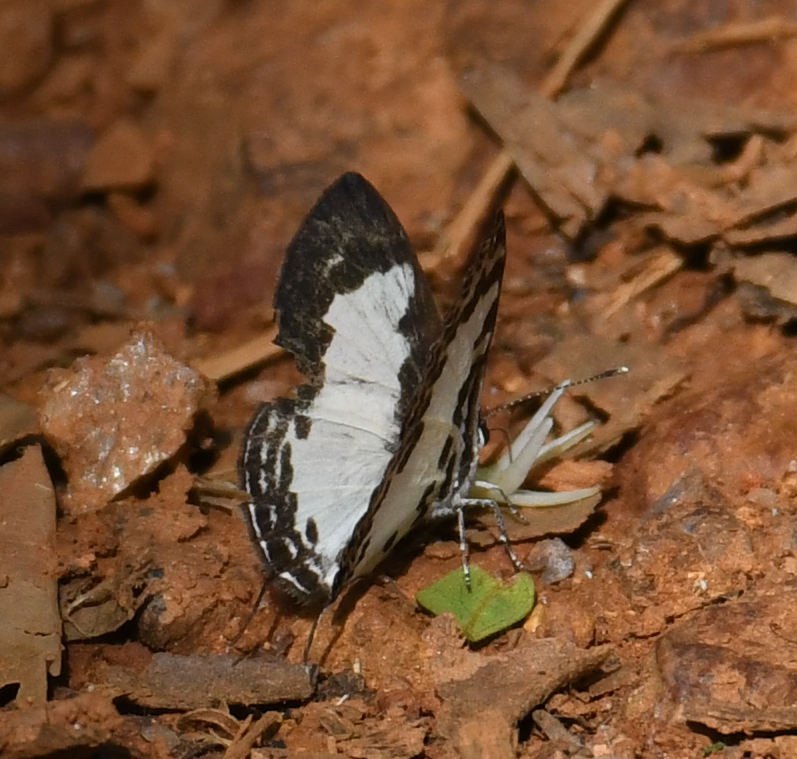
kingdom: Animalia
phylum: Arthropoda
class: Insecta
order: Lepidoptera
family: Lycaenidae
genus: Castalius
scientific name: Castalius carana
